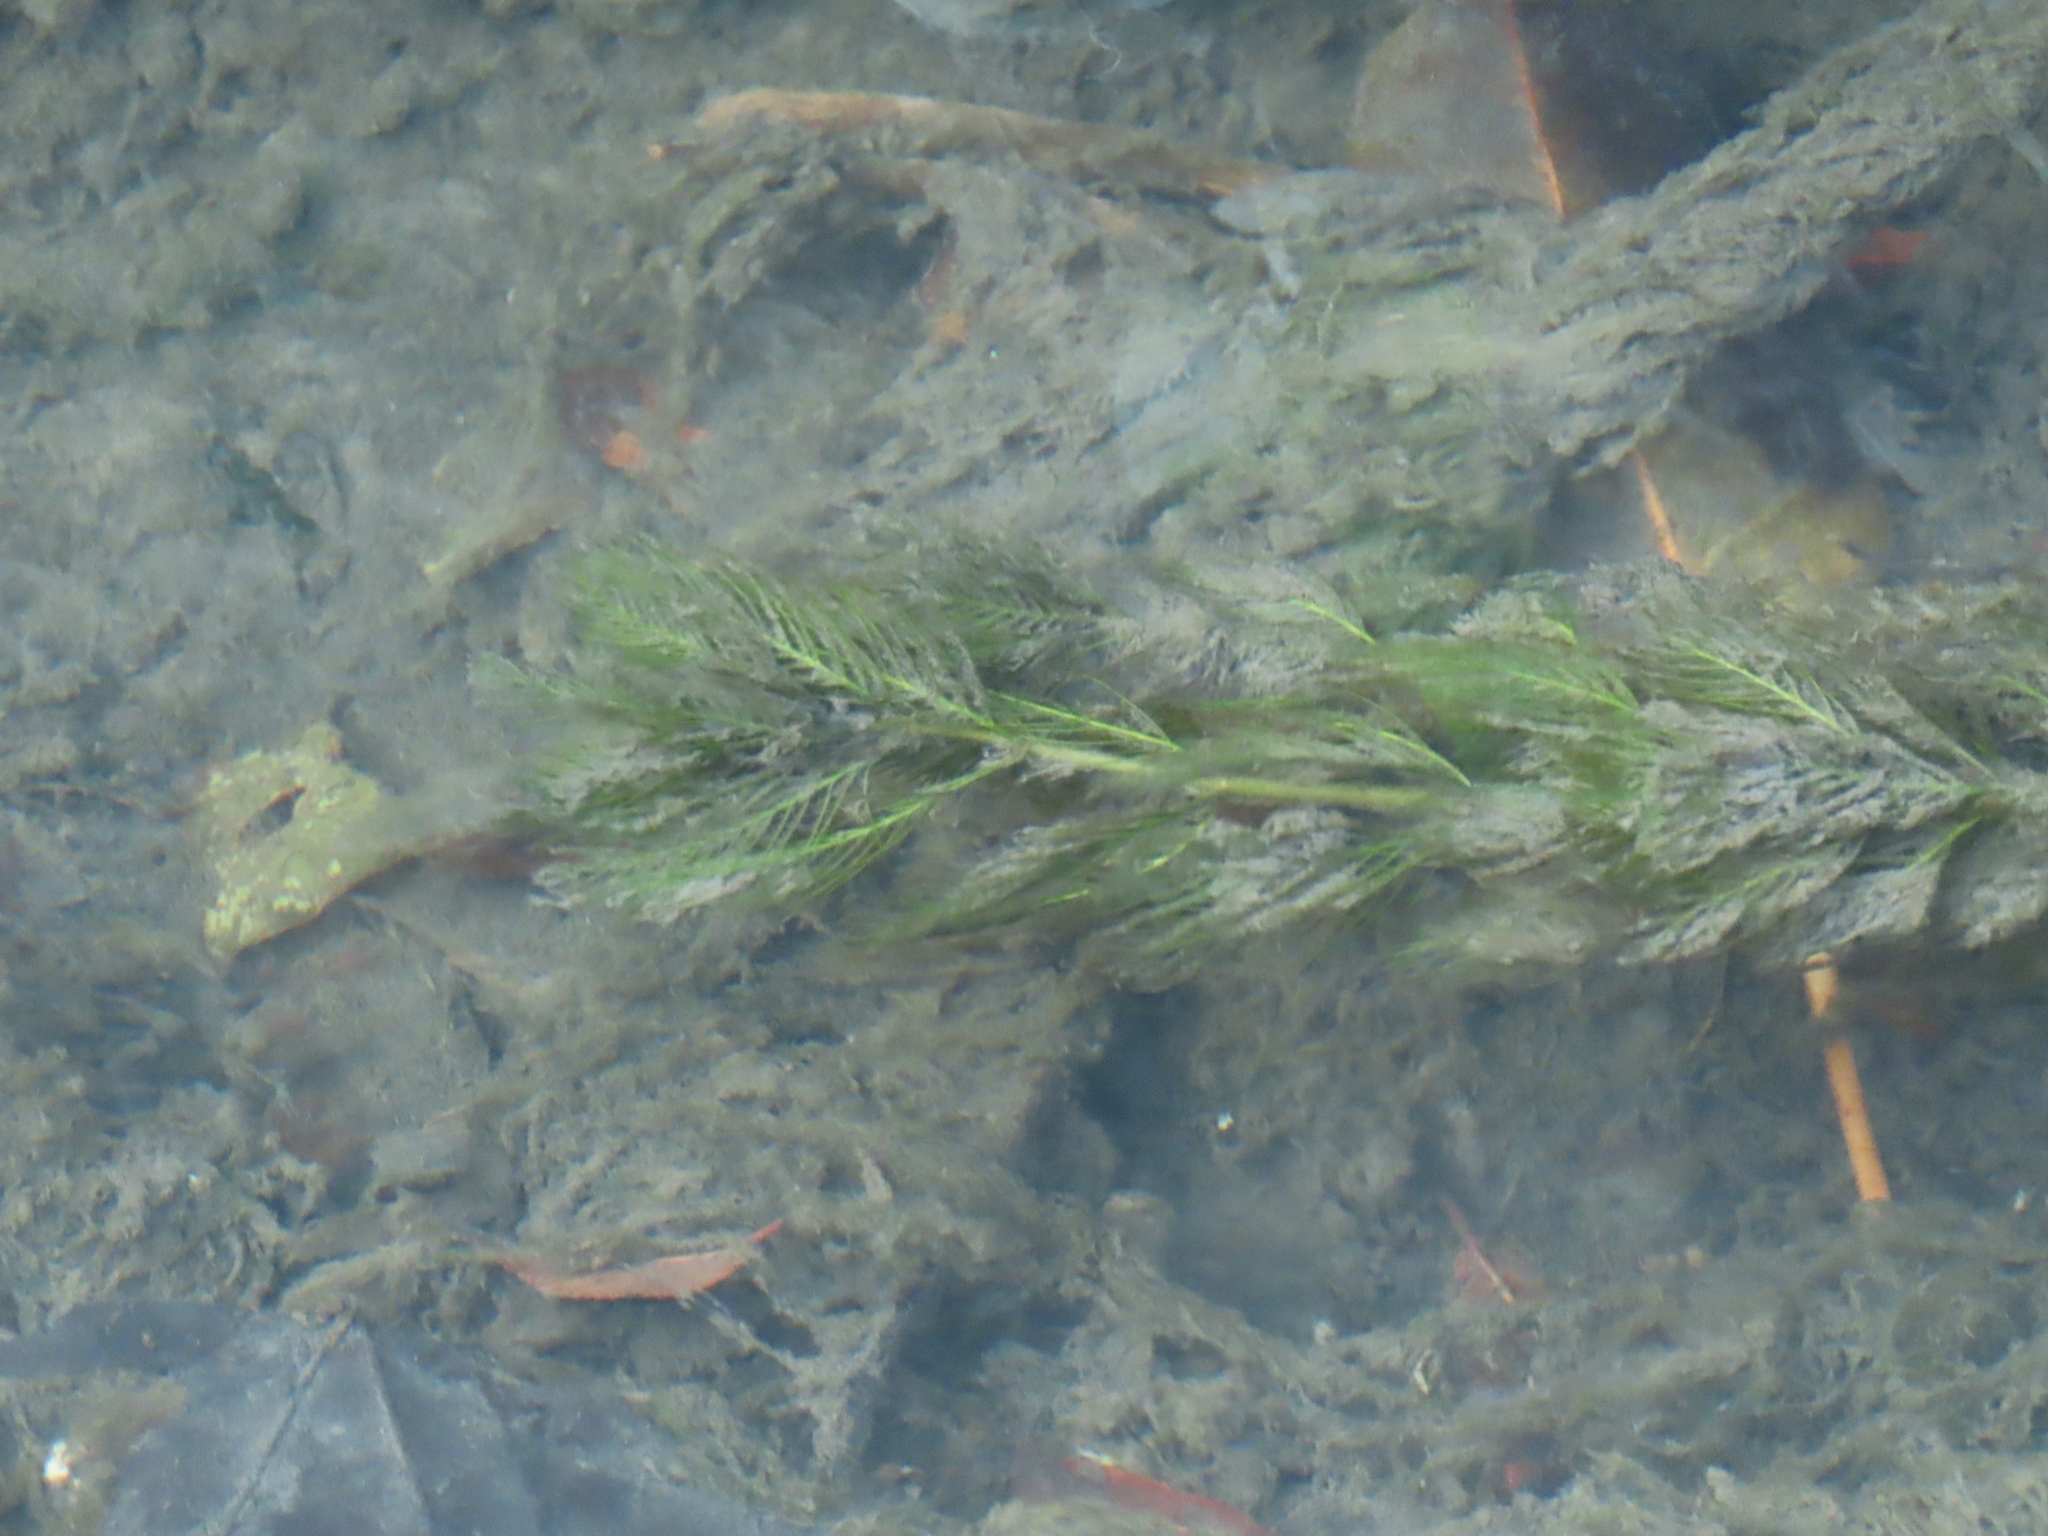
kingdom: Plantae
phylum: Tracheophyta
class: Magnoliopsida
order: Saxifragales
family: Haloragaceae
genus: Myriophyllum
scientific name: Myriophyllum spicatum
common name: Spiked water-milfoil
